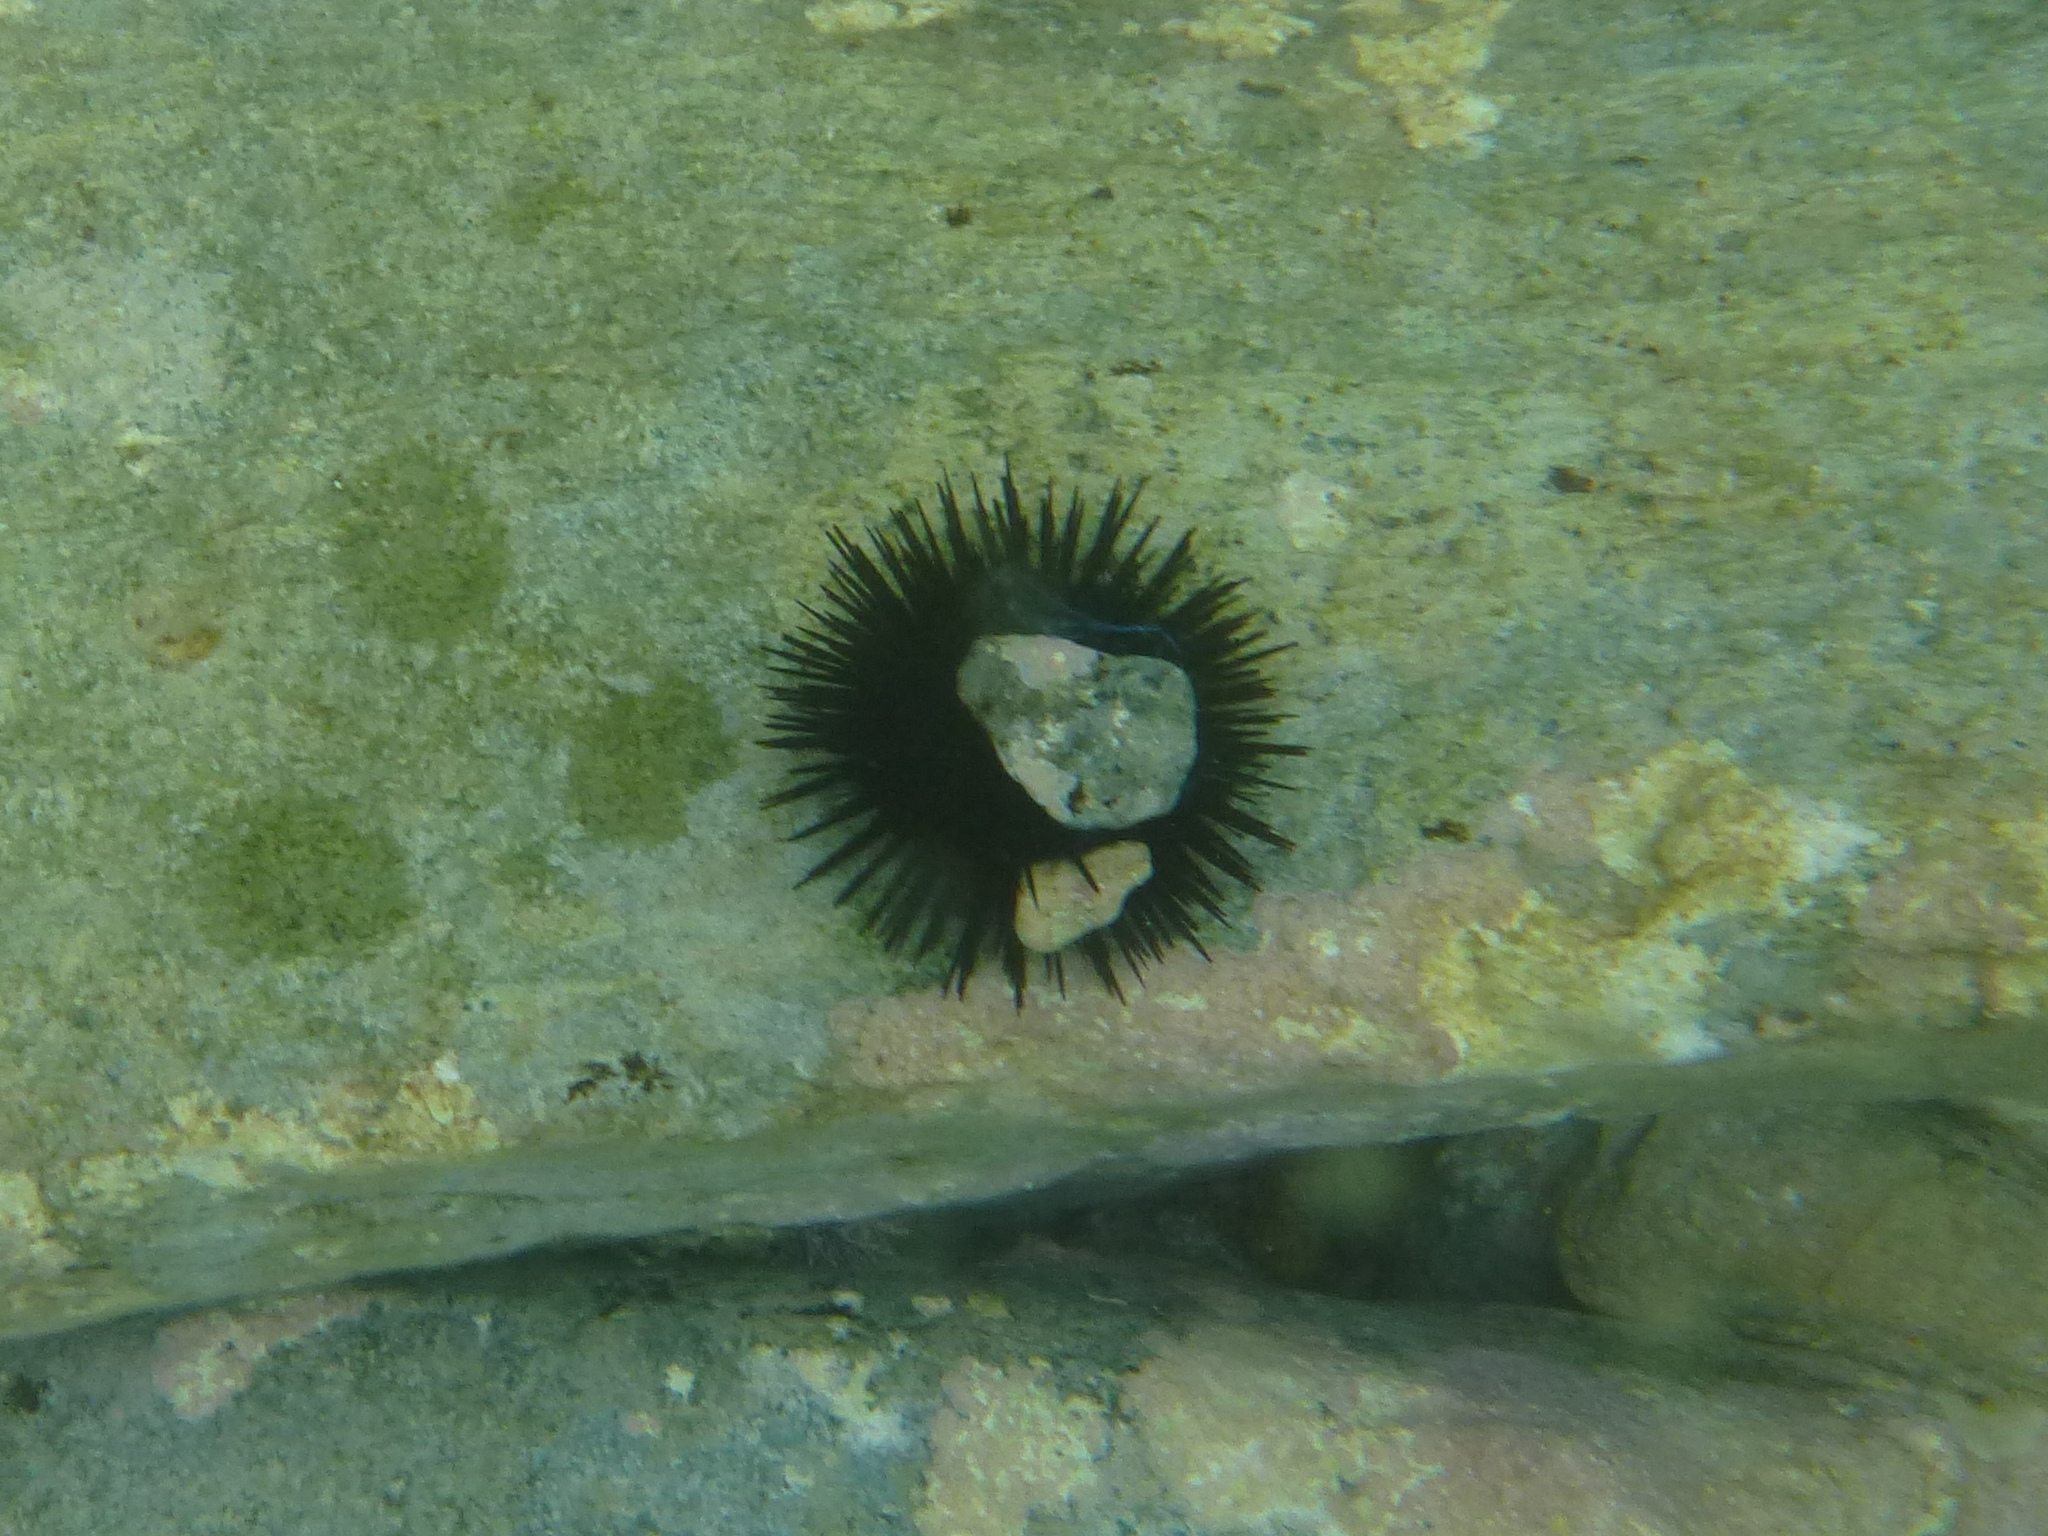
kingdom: Animalia
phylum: Echinodermata
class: Echinoidea
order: Camarodonta
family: Parechinidae
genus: Paracentrotus
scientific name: Paracentrotus lividus
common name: Purple sea urchin
